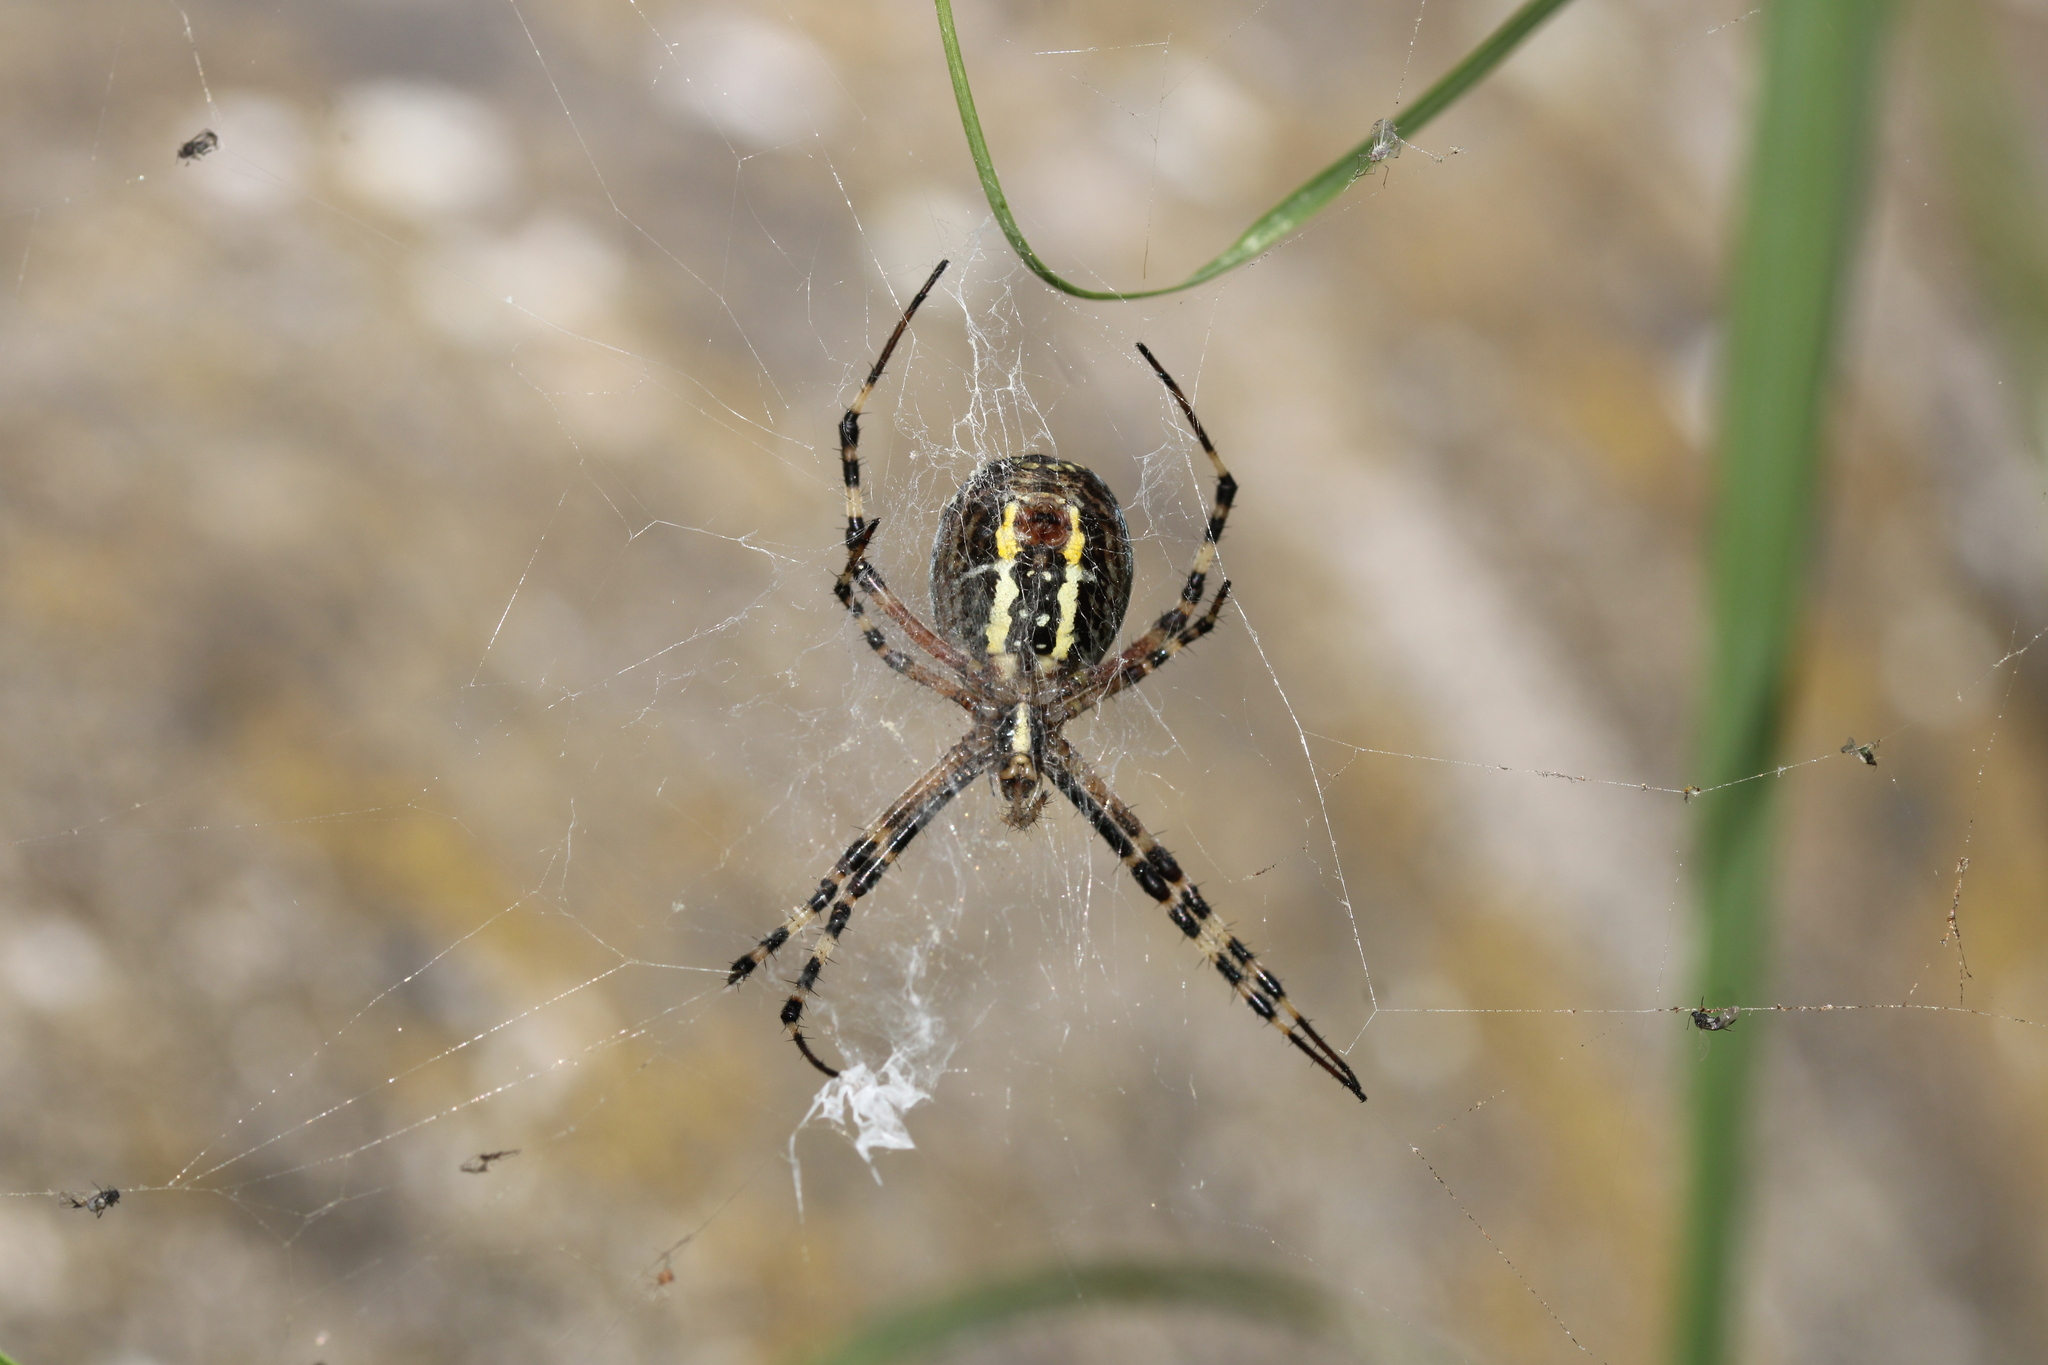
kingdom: Animalia
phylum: Arthropoda
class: Arachnida
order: Araneae
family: Araneidae
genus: Argiope
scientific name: Argiope bruennichi
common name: Wasp spider
